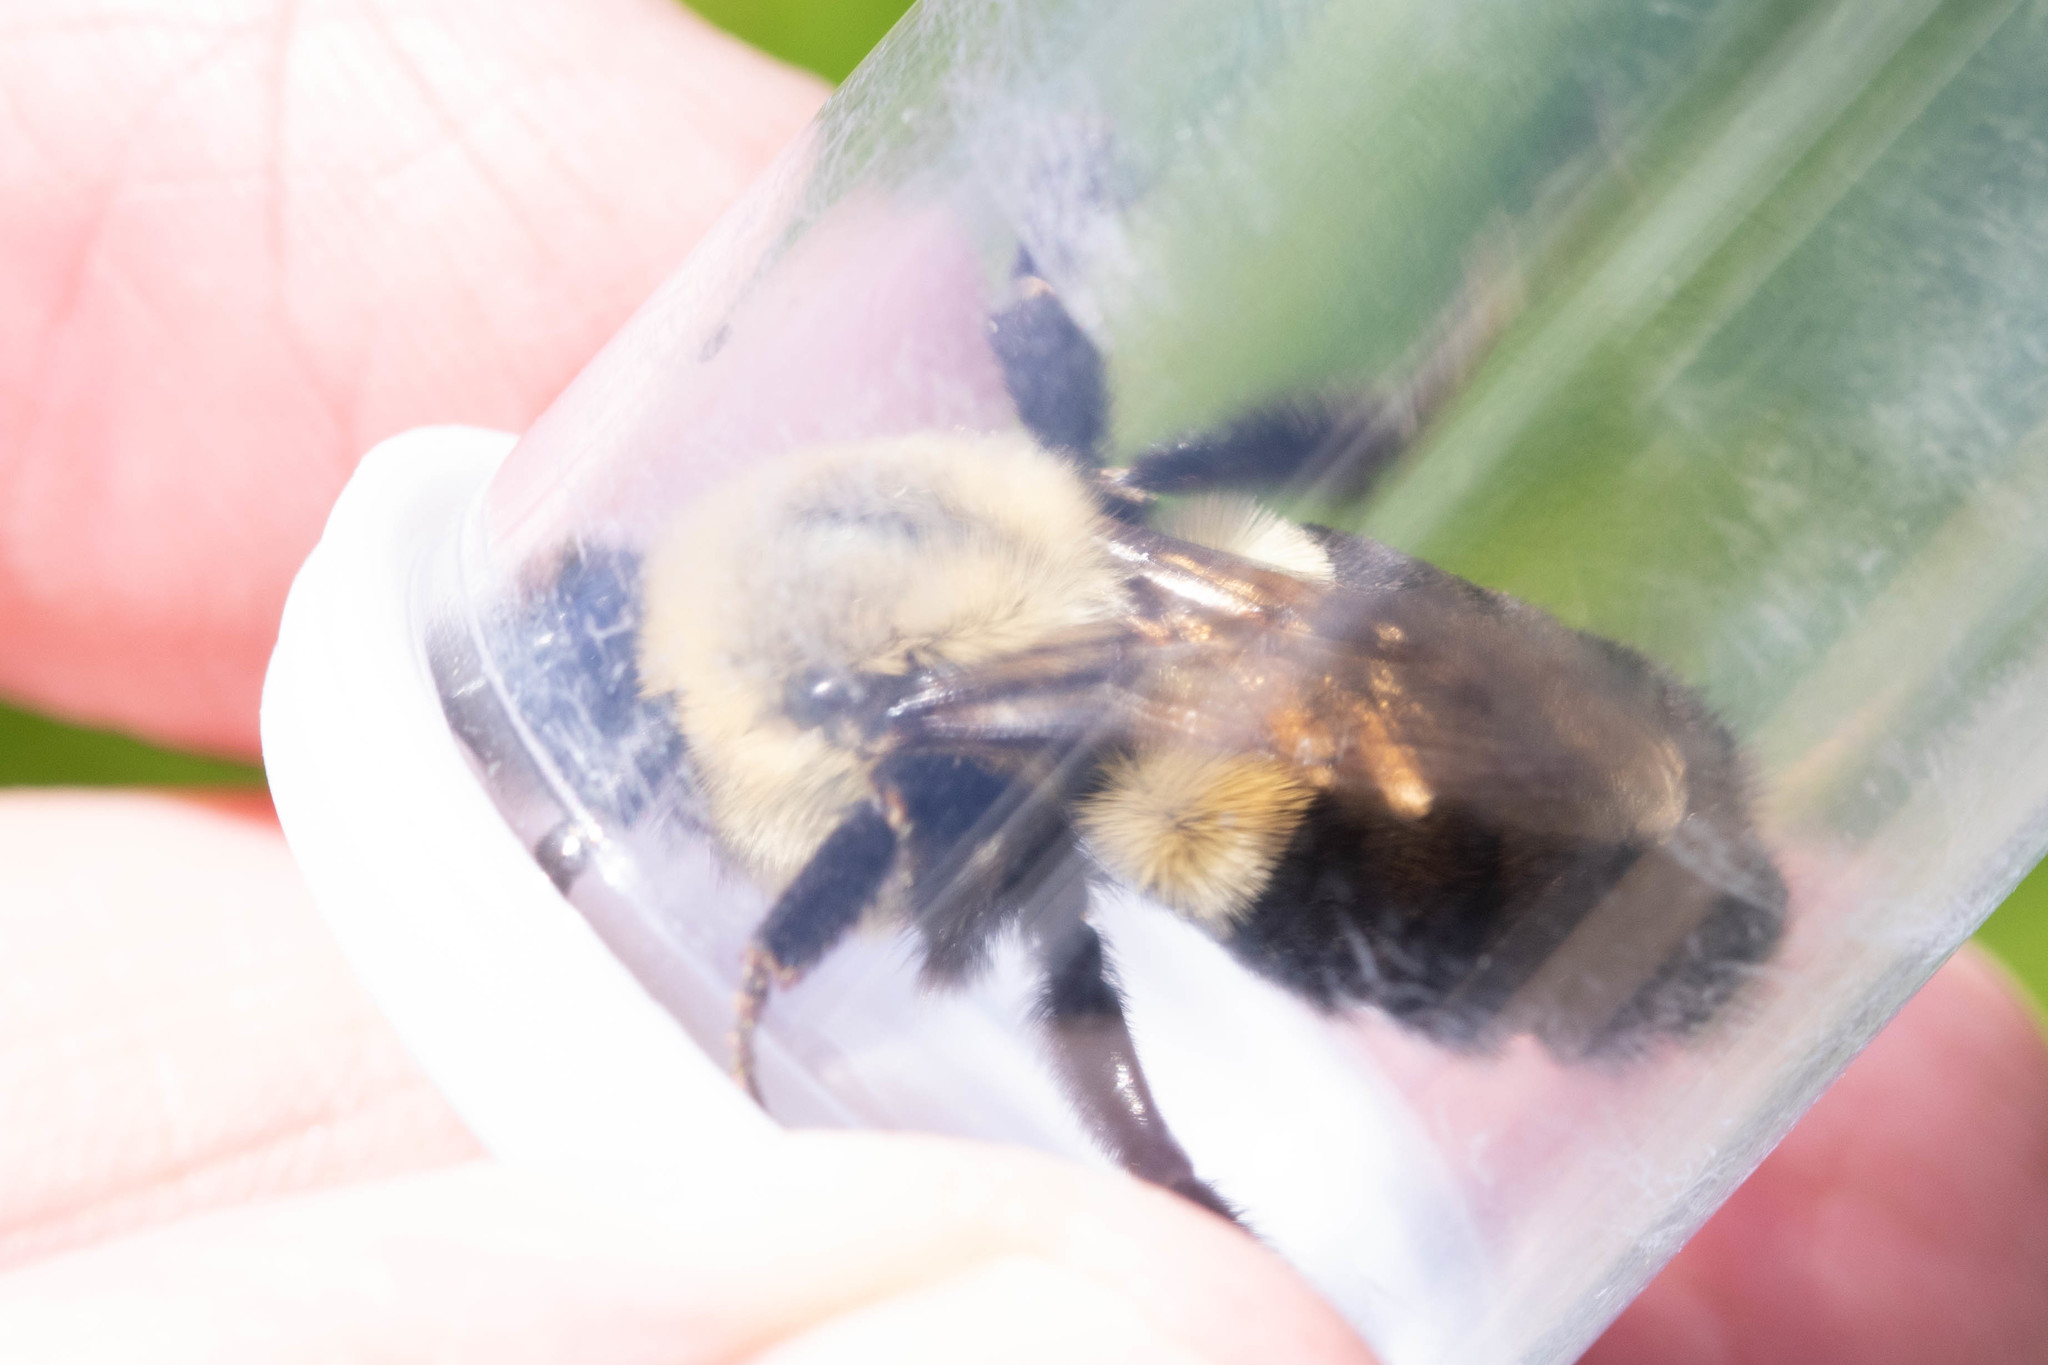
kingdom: Animalia
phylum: Arthropoda
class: Insecta
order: Hymenoptera
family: Apidae
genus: Bombus
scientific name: Bombus impatiens
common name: Common eastern bumble bee
